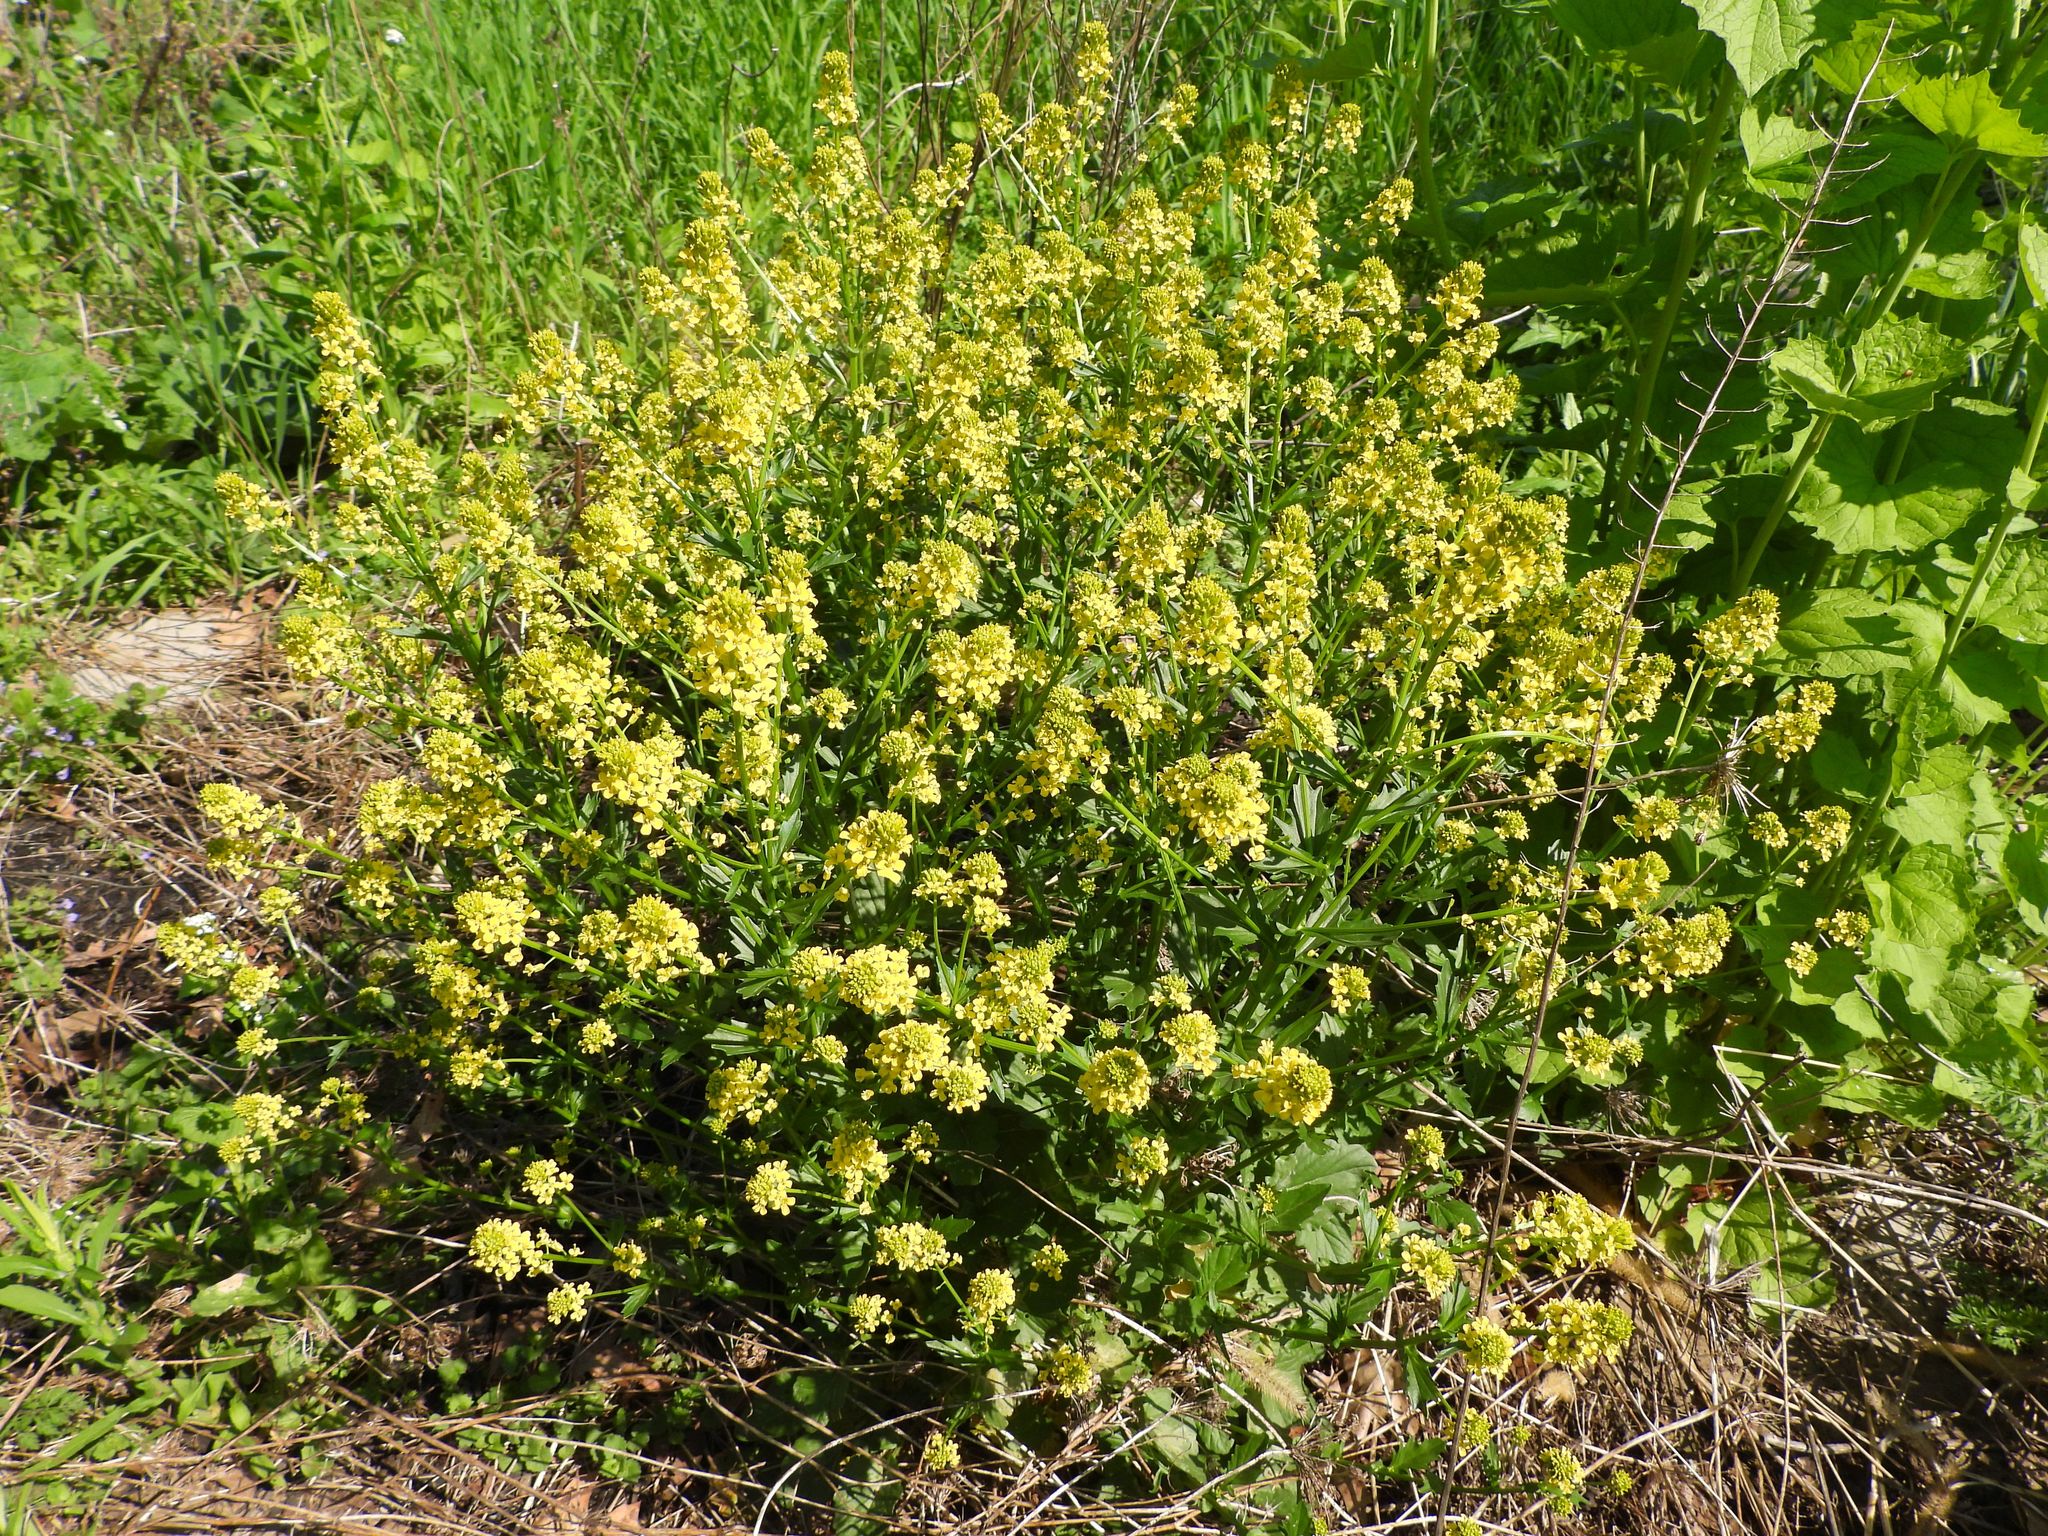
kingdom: Plantae
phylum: Tracheophyta
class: Magnoliopsida
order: Brassicales
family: Brassicaceae
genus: Barbarea
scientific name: Barbarea vulgaris
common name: Cressy-greens
